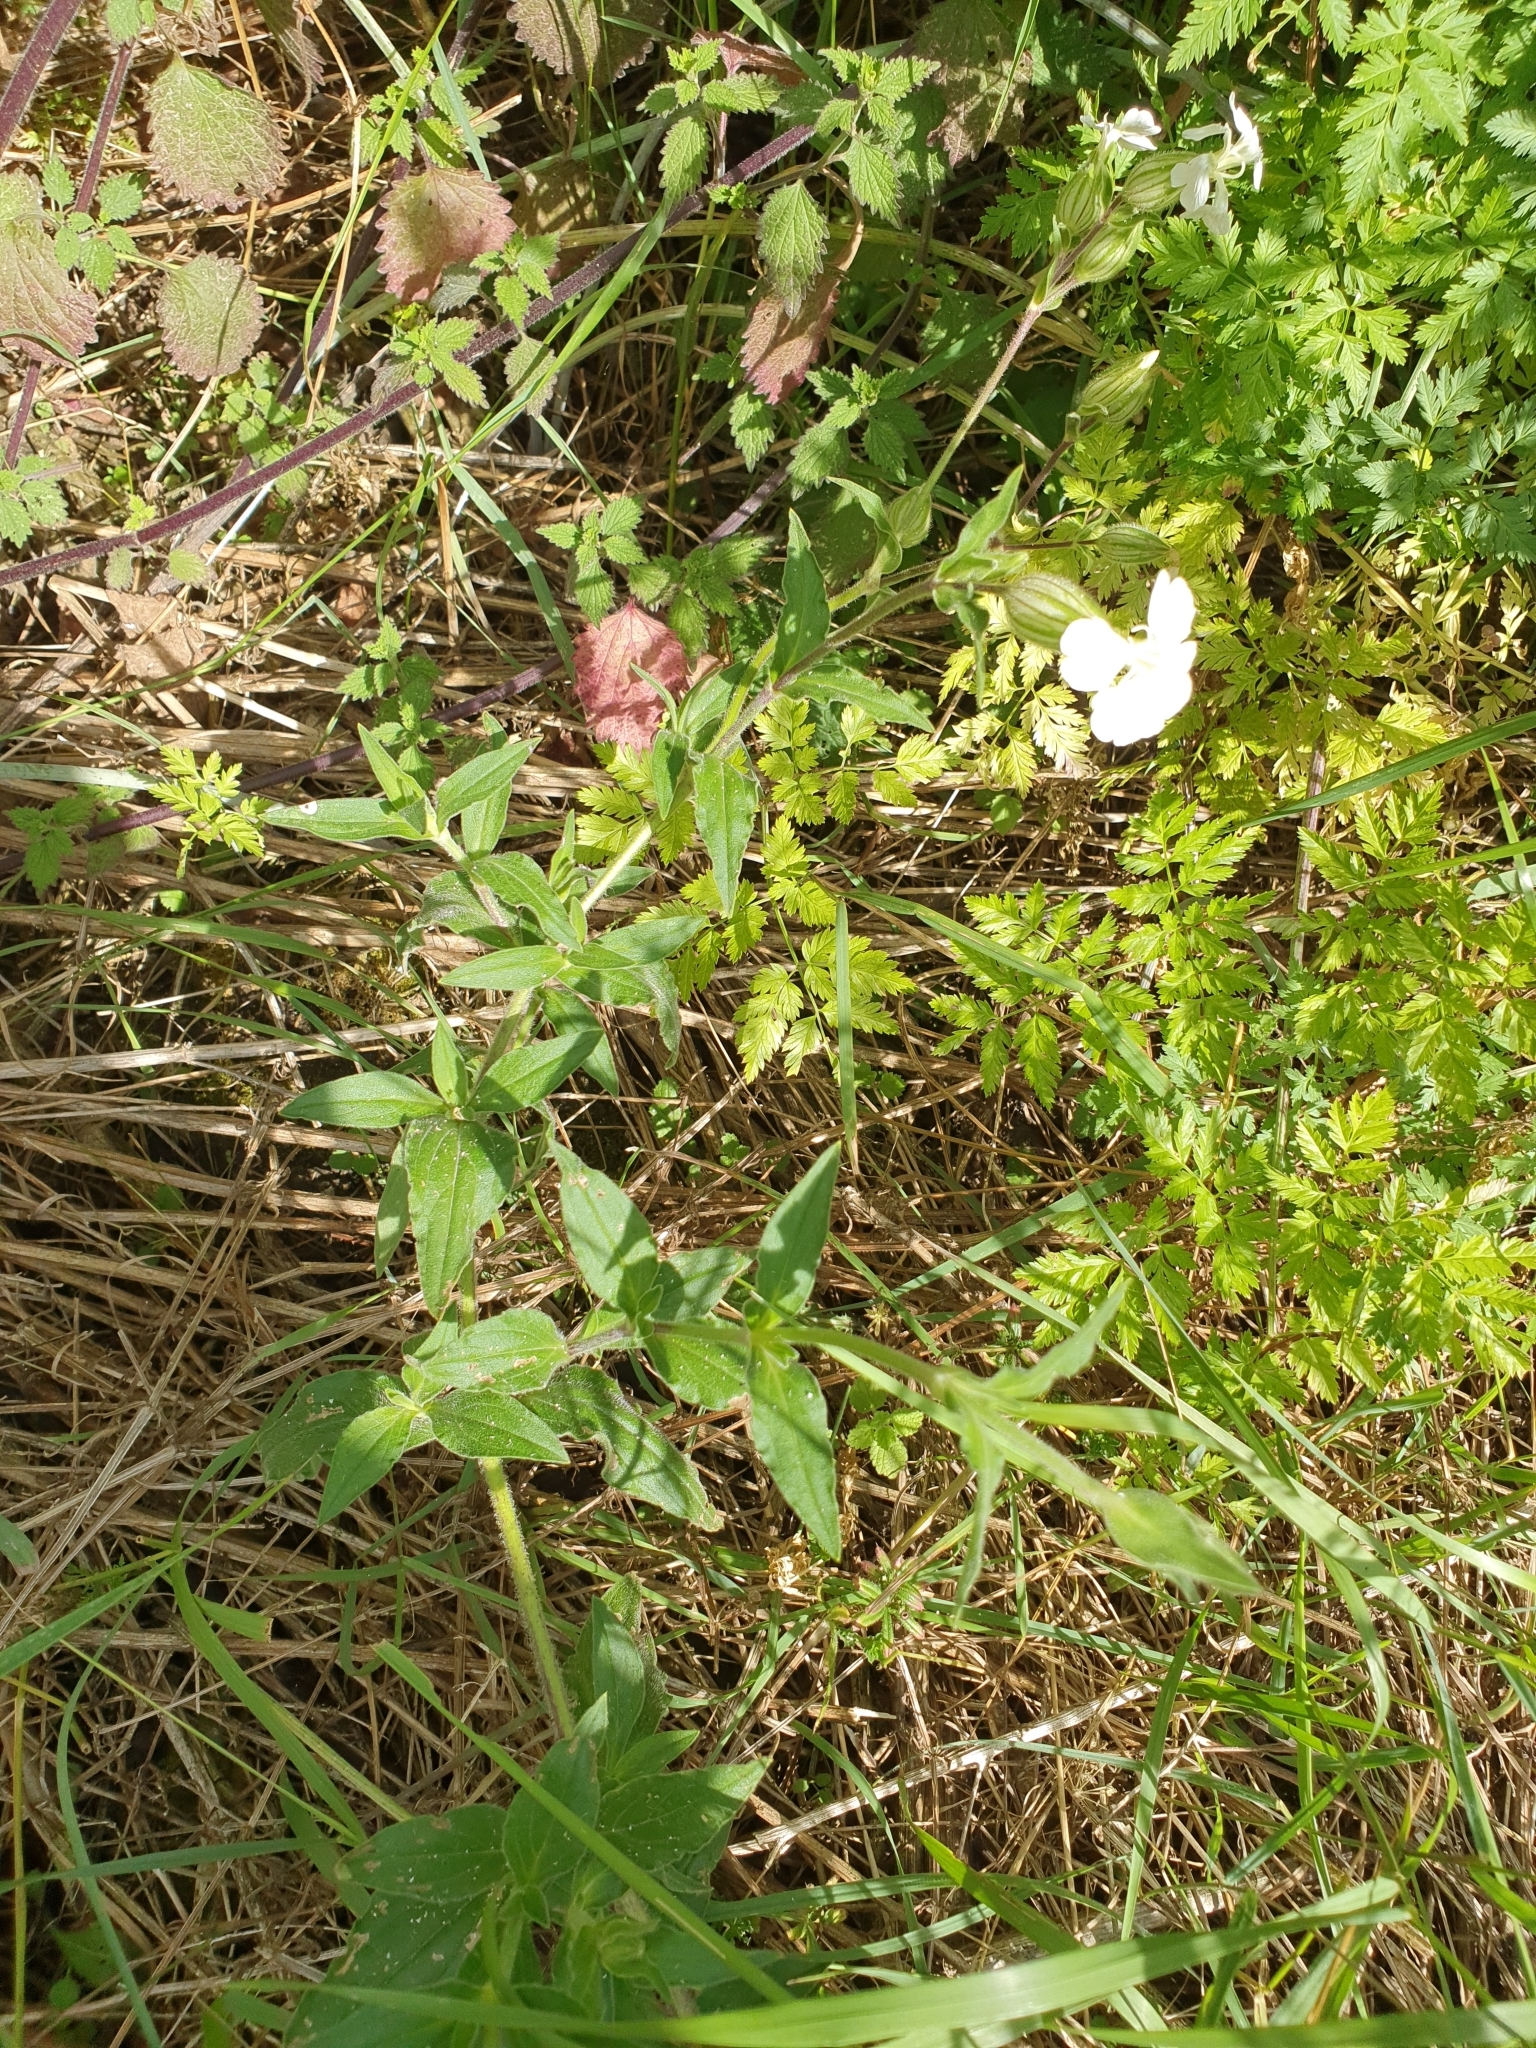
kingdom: Plantae
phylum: Tracheophyta
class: Magnoliopsida
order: Caryophyllales
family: Caryophyllaceae
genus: Silene
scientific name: Silene latifolia
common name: White campion
